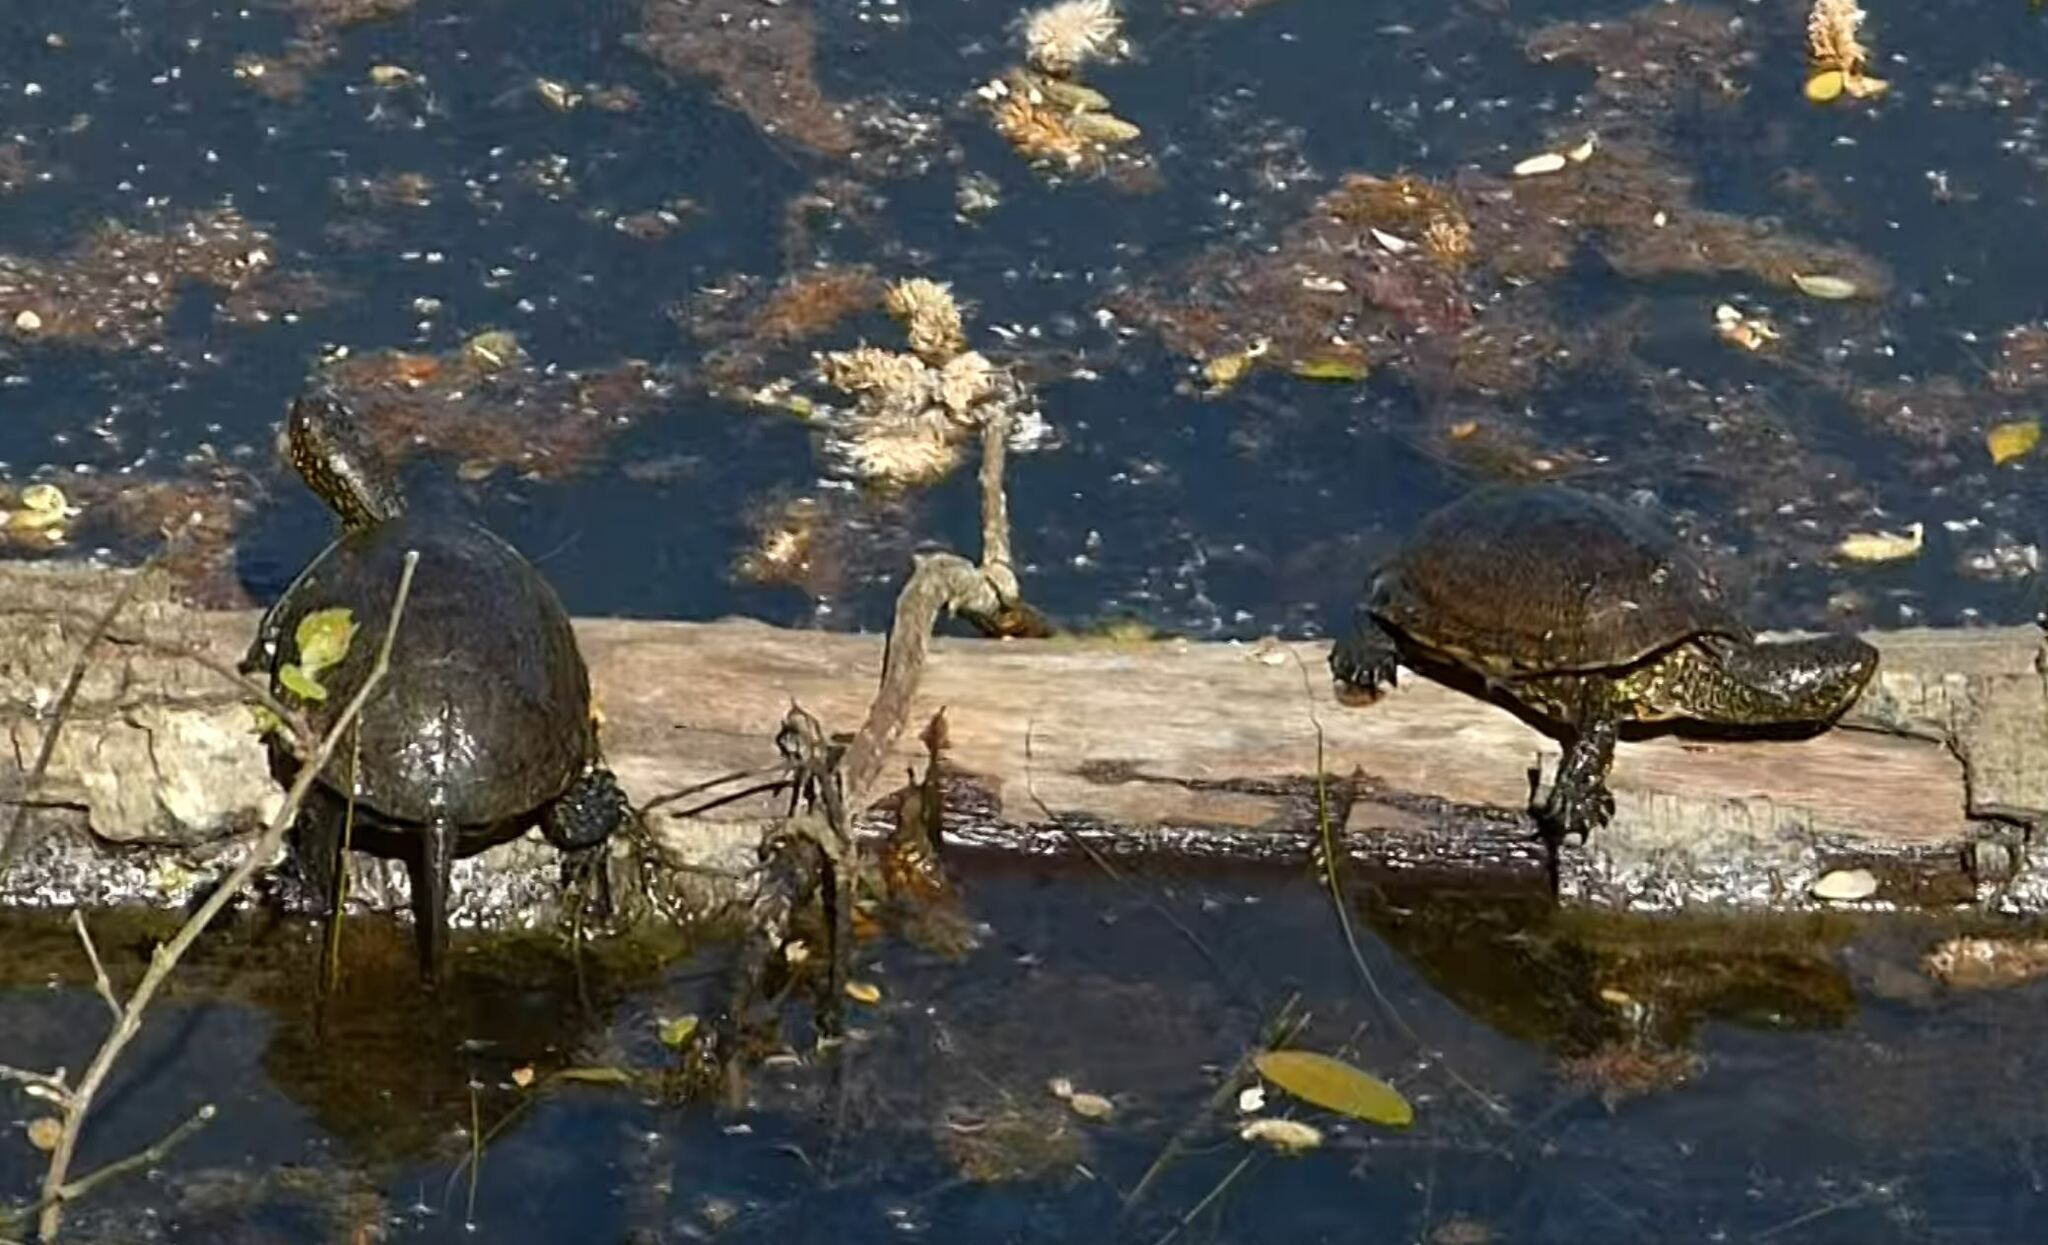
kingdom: Animalia
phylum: Chordata
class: Testudines
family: Emydidae
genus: Emys
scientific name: Emys orbicularis
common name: European pond turtle
